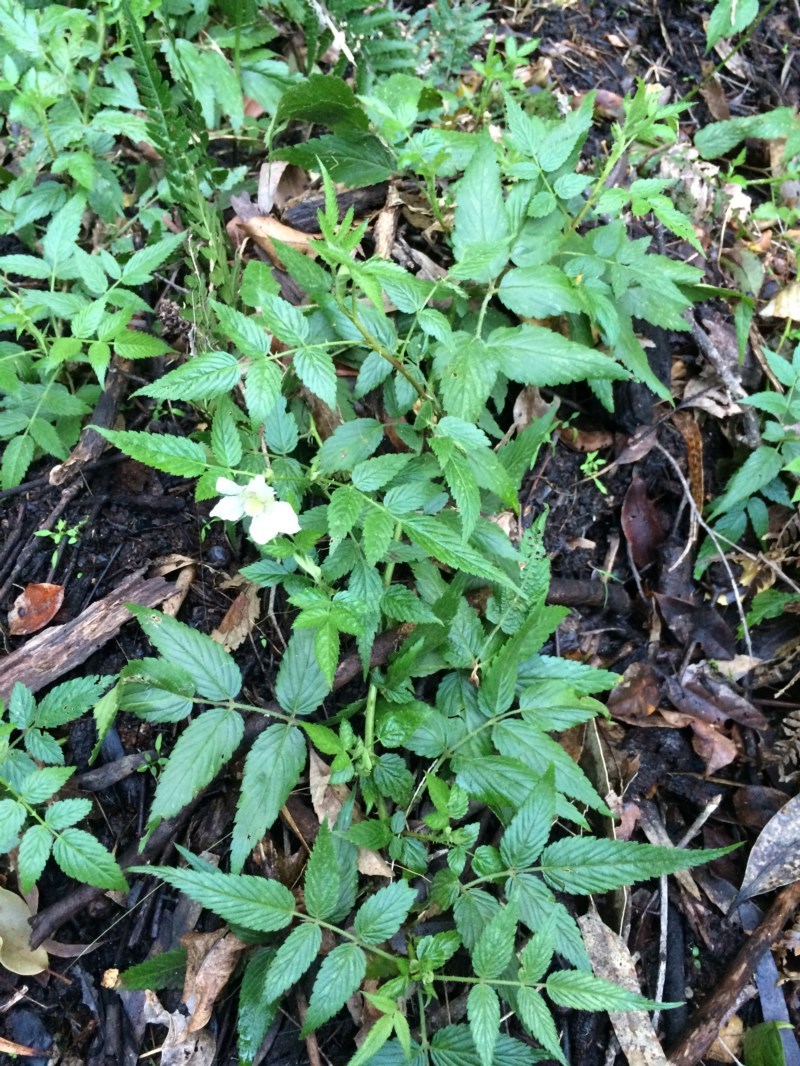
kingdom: Plantae
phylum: Tracheophyta
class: Magnoliopsida
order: Rosales
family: Rosaceae
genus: Rubus
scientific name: Rubus rosifolius
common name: Roseleaf raspberry
